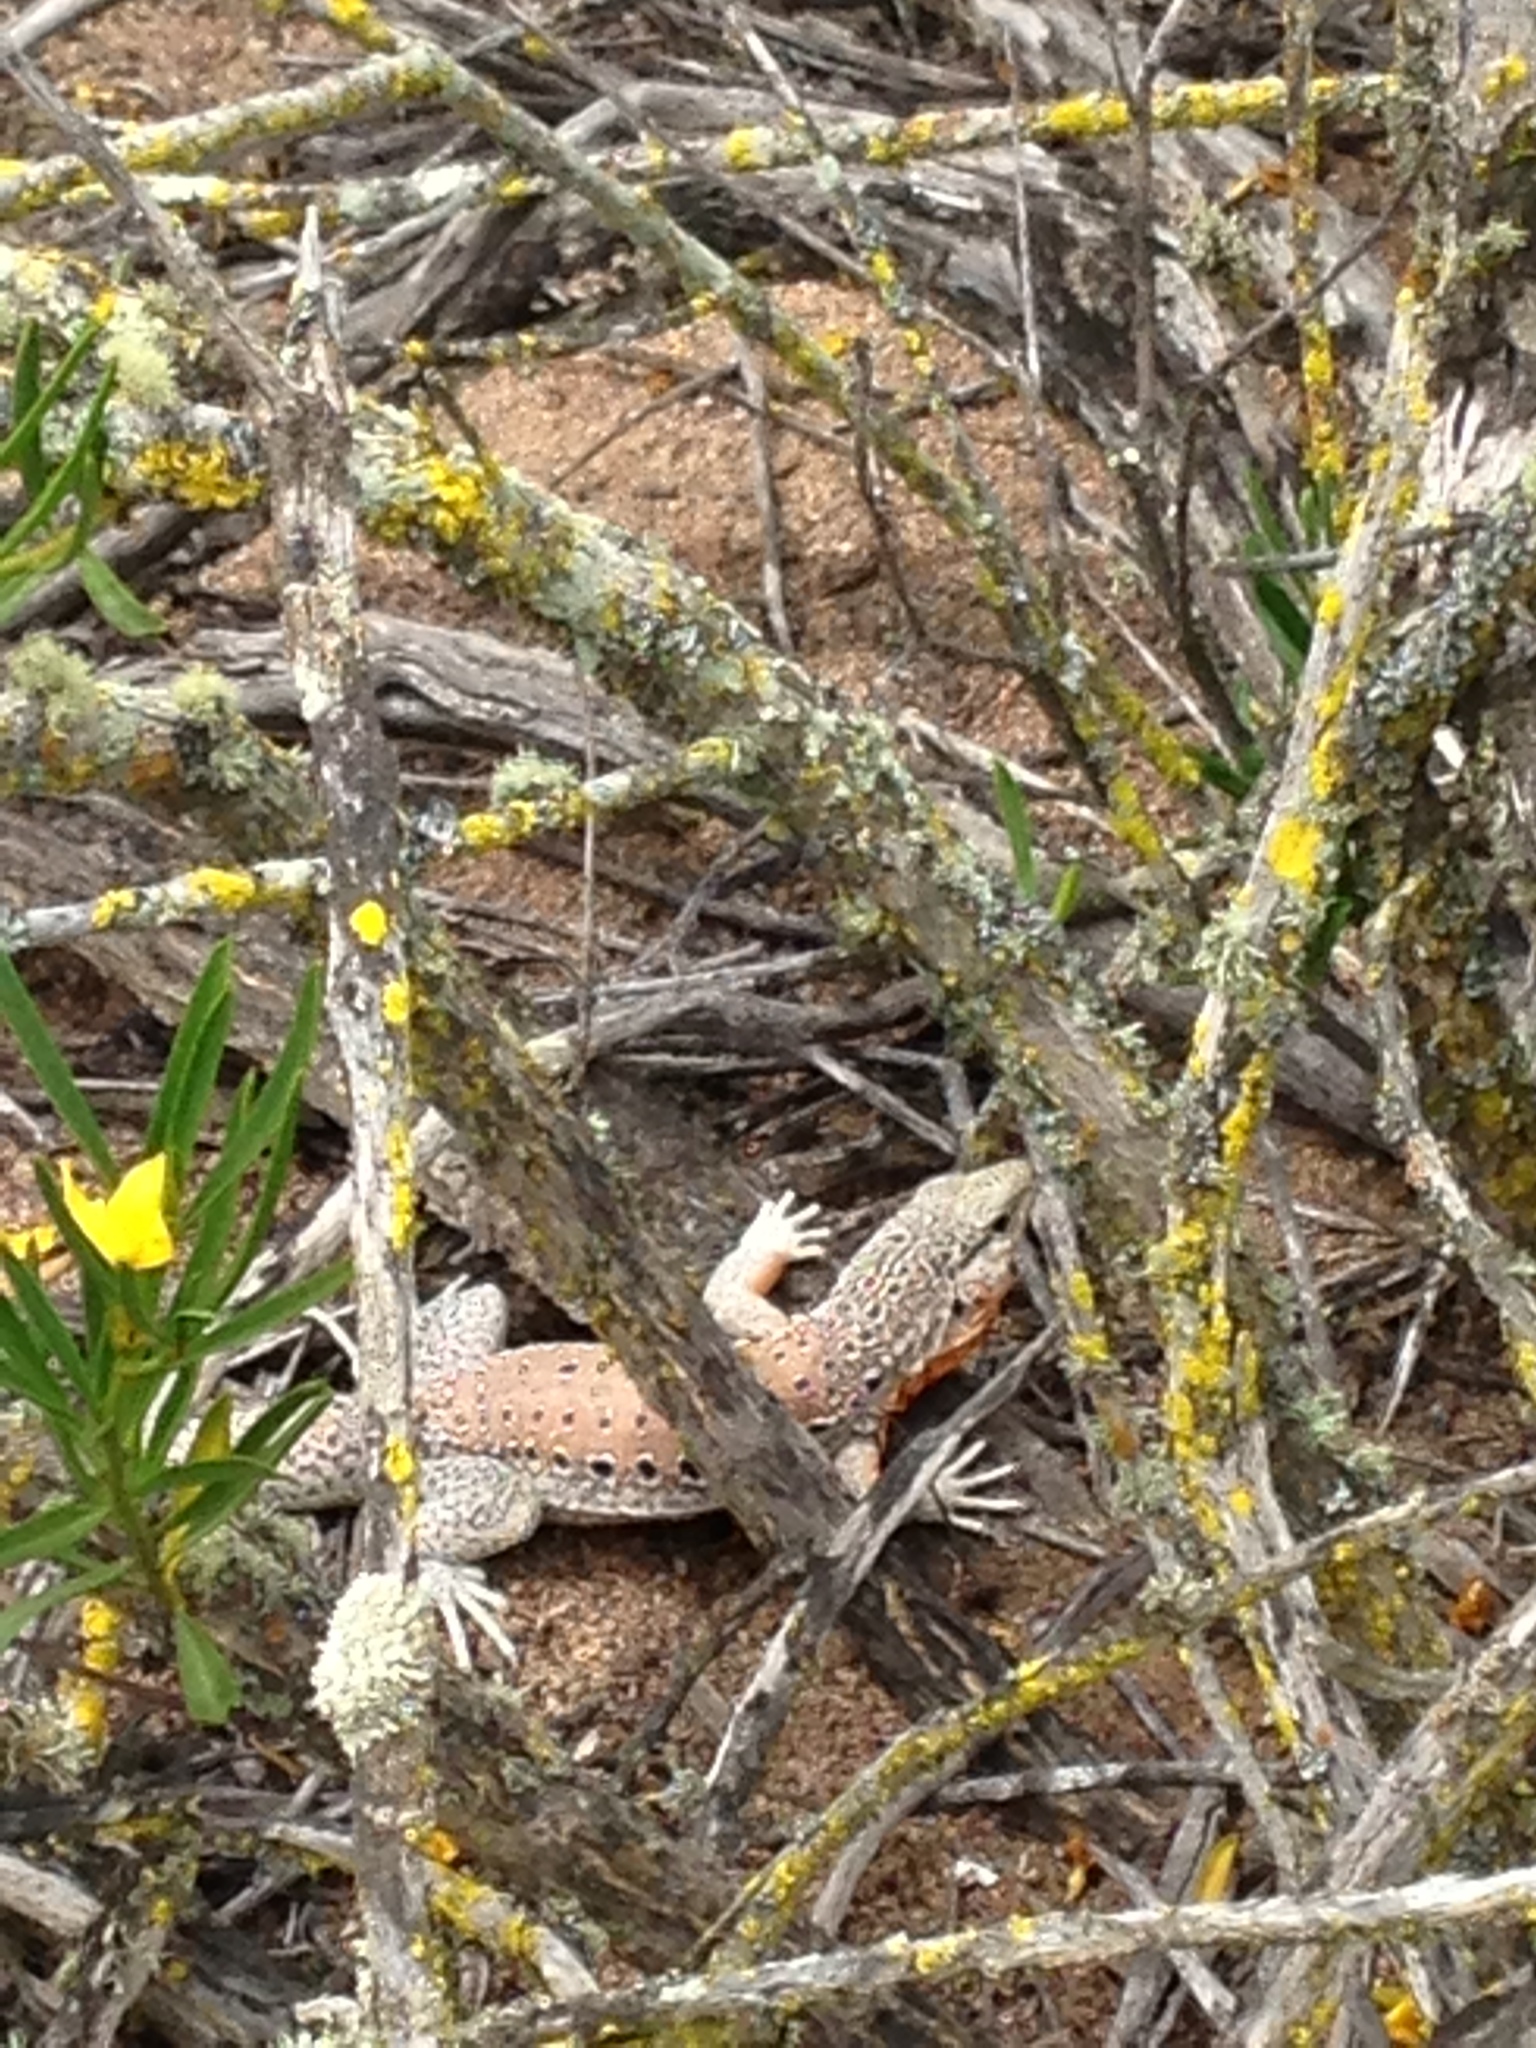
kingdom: Plantae
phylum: Tracheophyta
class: Magnoliopsida
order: Gentianales
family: Apocynaceae
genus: Skytanthus
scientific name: Skytanthus acutus
